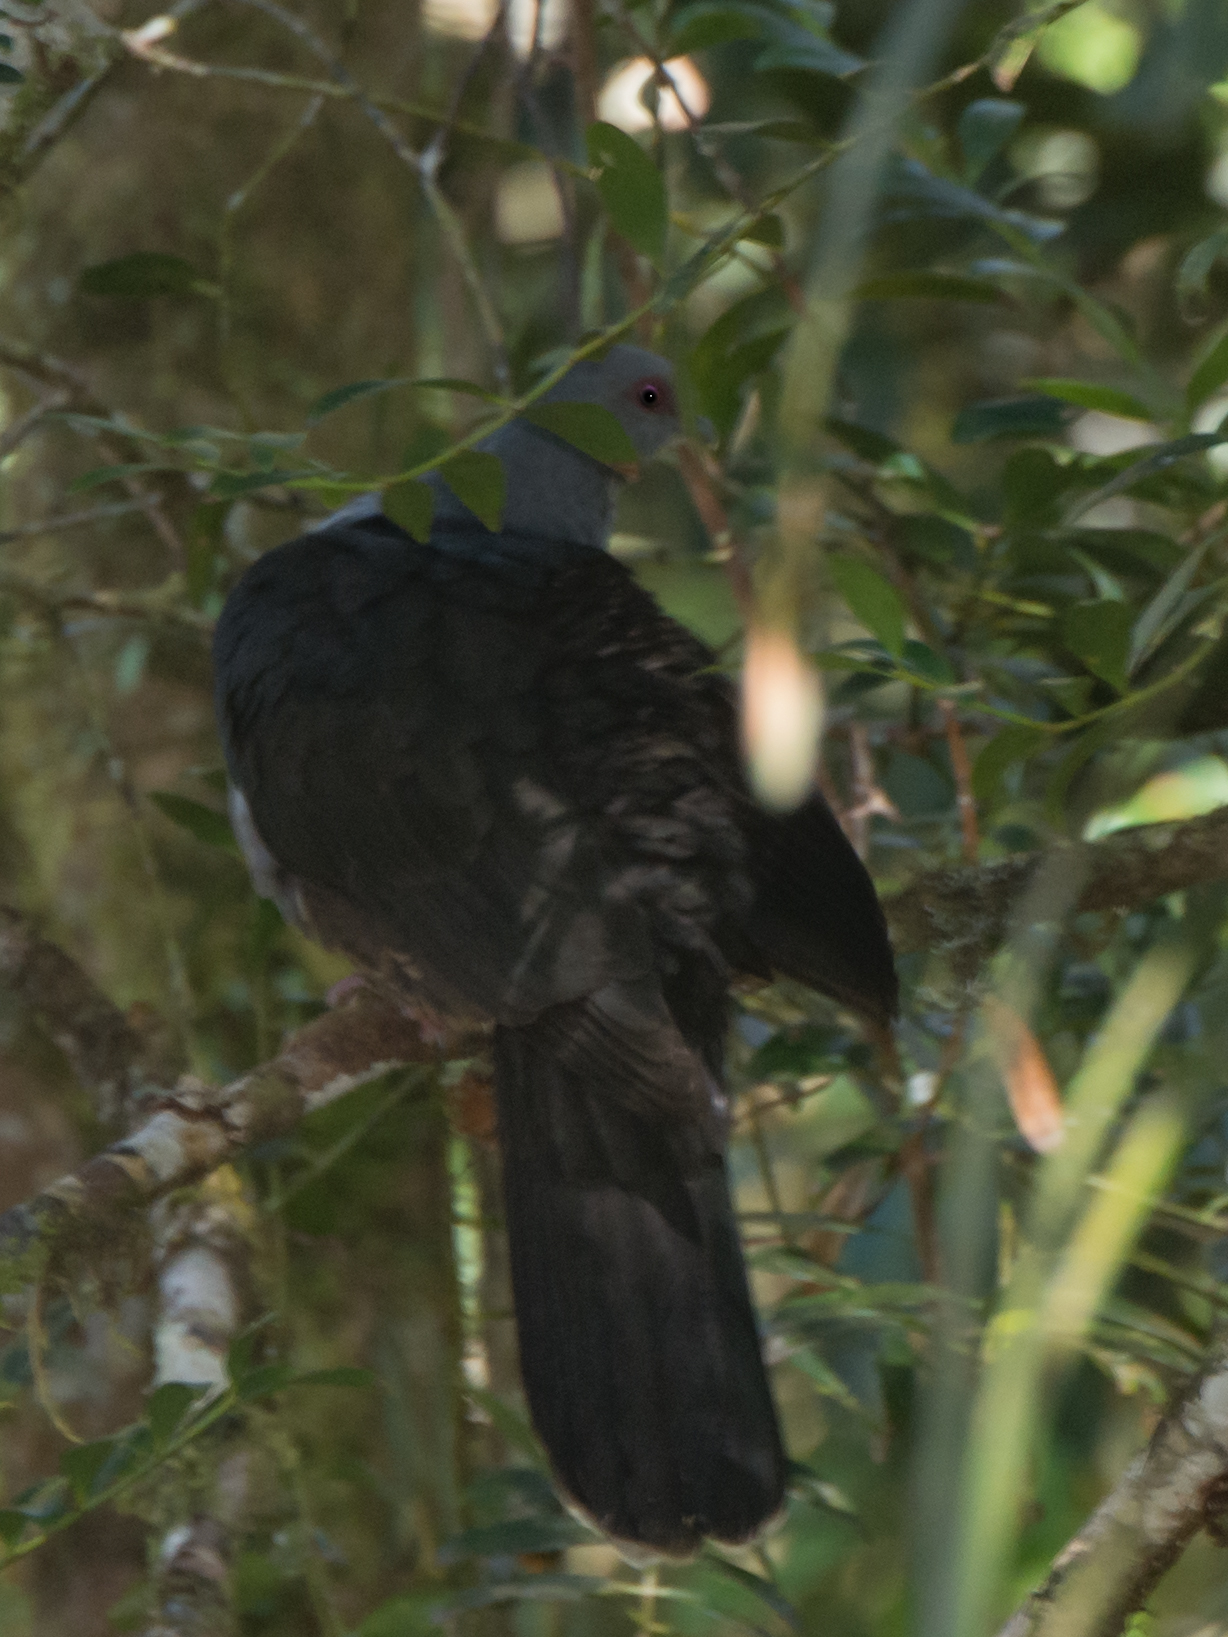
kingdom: Animalia
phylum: Chordata
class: Aves
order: Columbiformes
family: Columbidae
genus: Cryptophaps
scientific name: Cryptophaps poecilorrhoa
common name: Sombre pigeon
